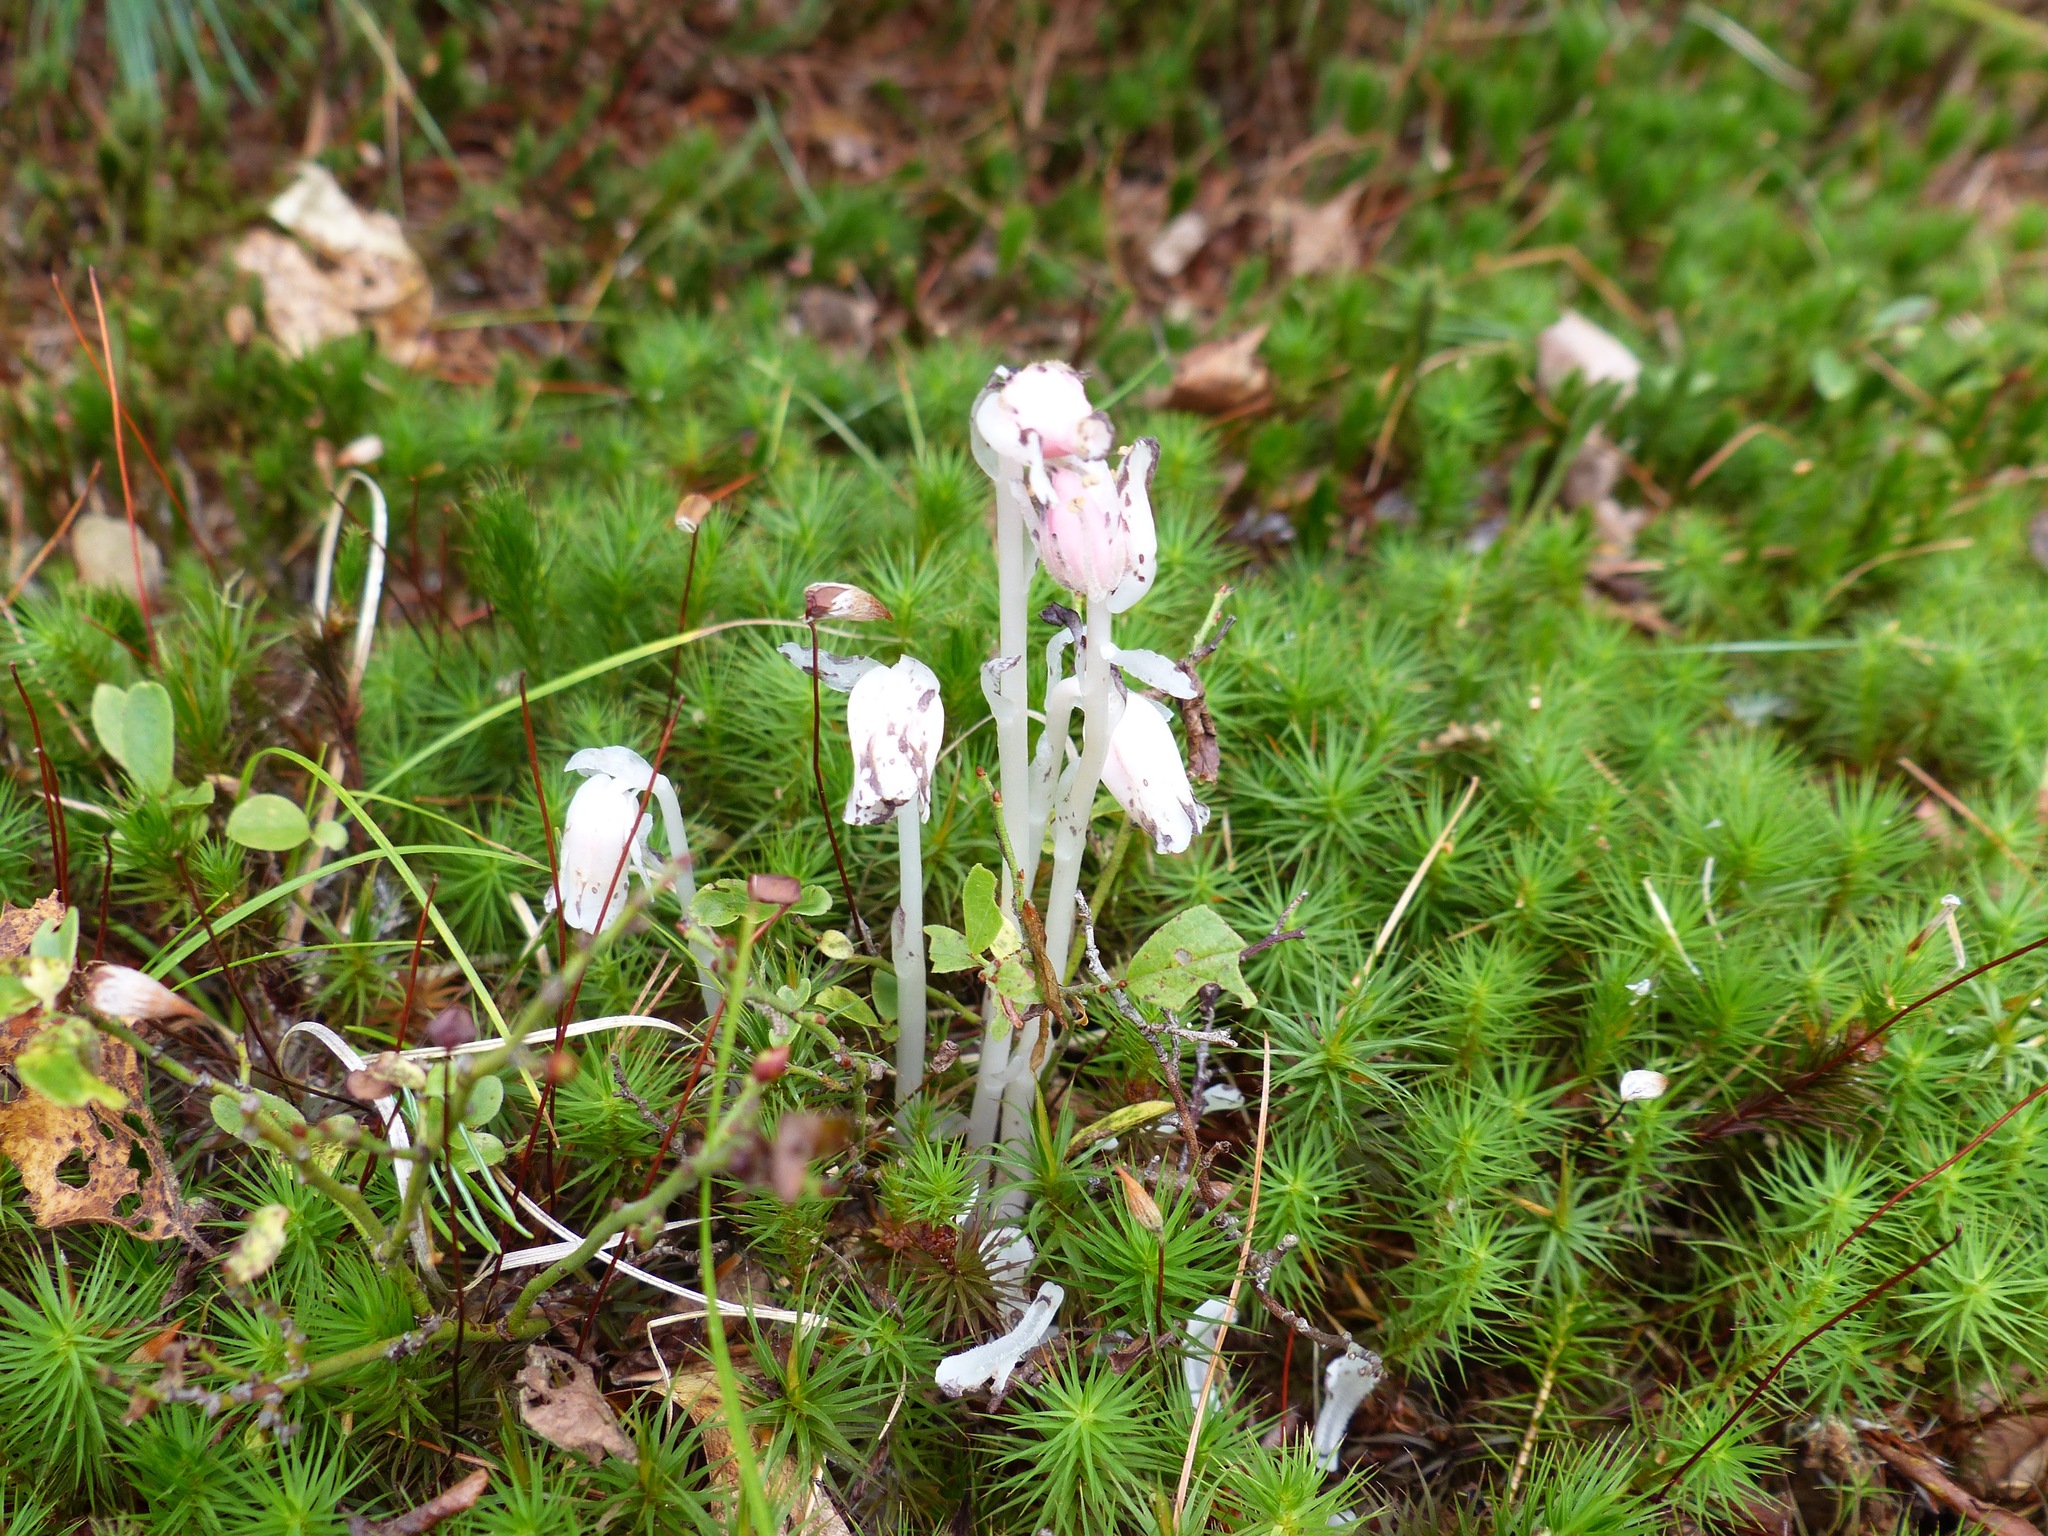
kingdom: Plantae
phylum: Tracheophyta
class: Magnoliopsida
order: Ericales
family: Ericaceae
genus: Monotropa
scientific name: Monotropa uniflora
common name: Convulsion root
